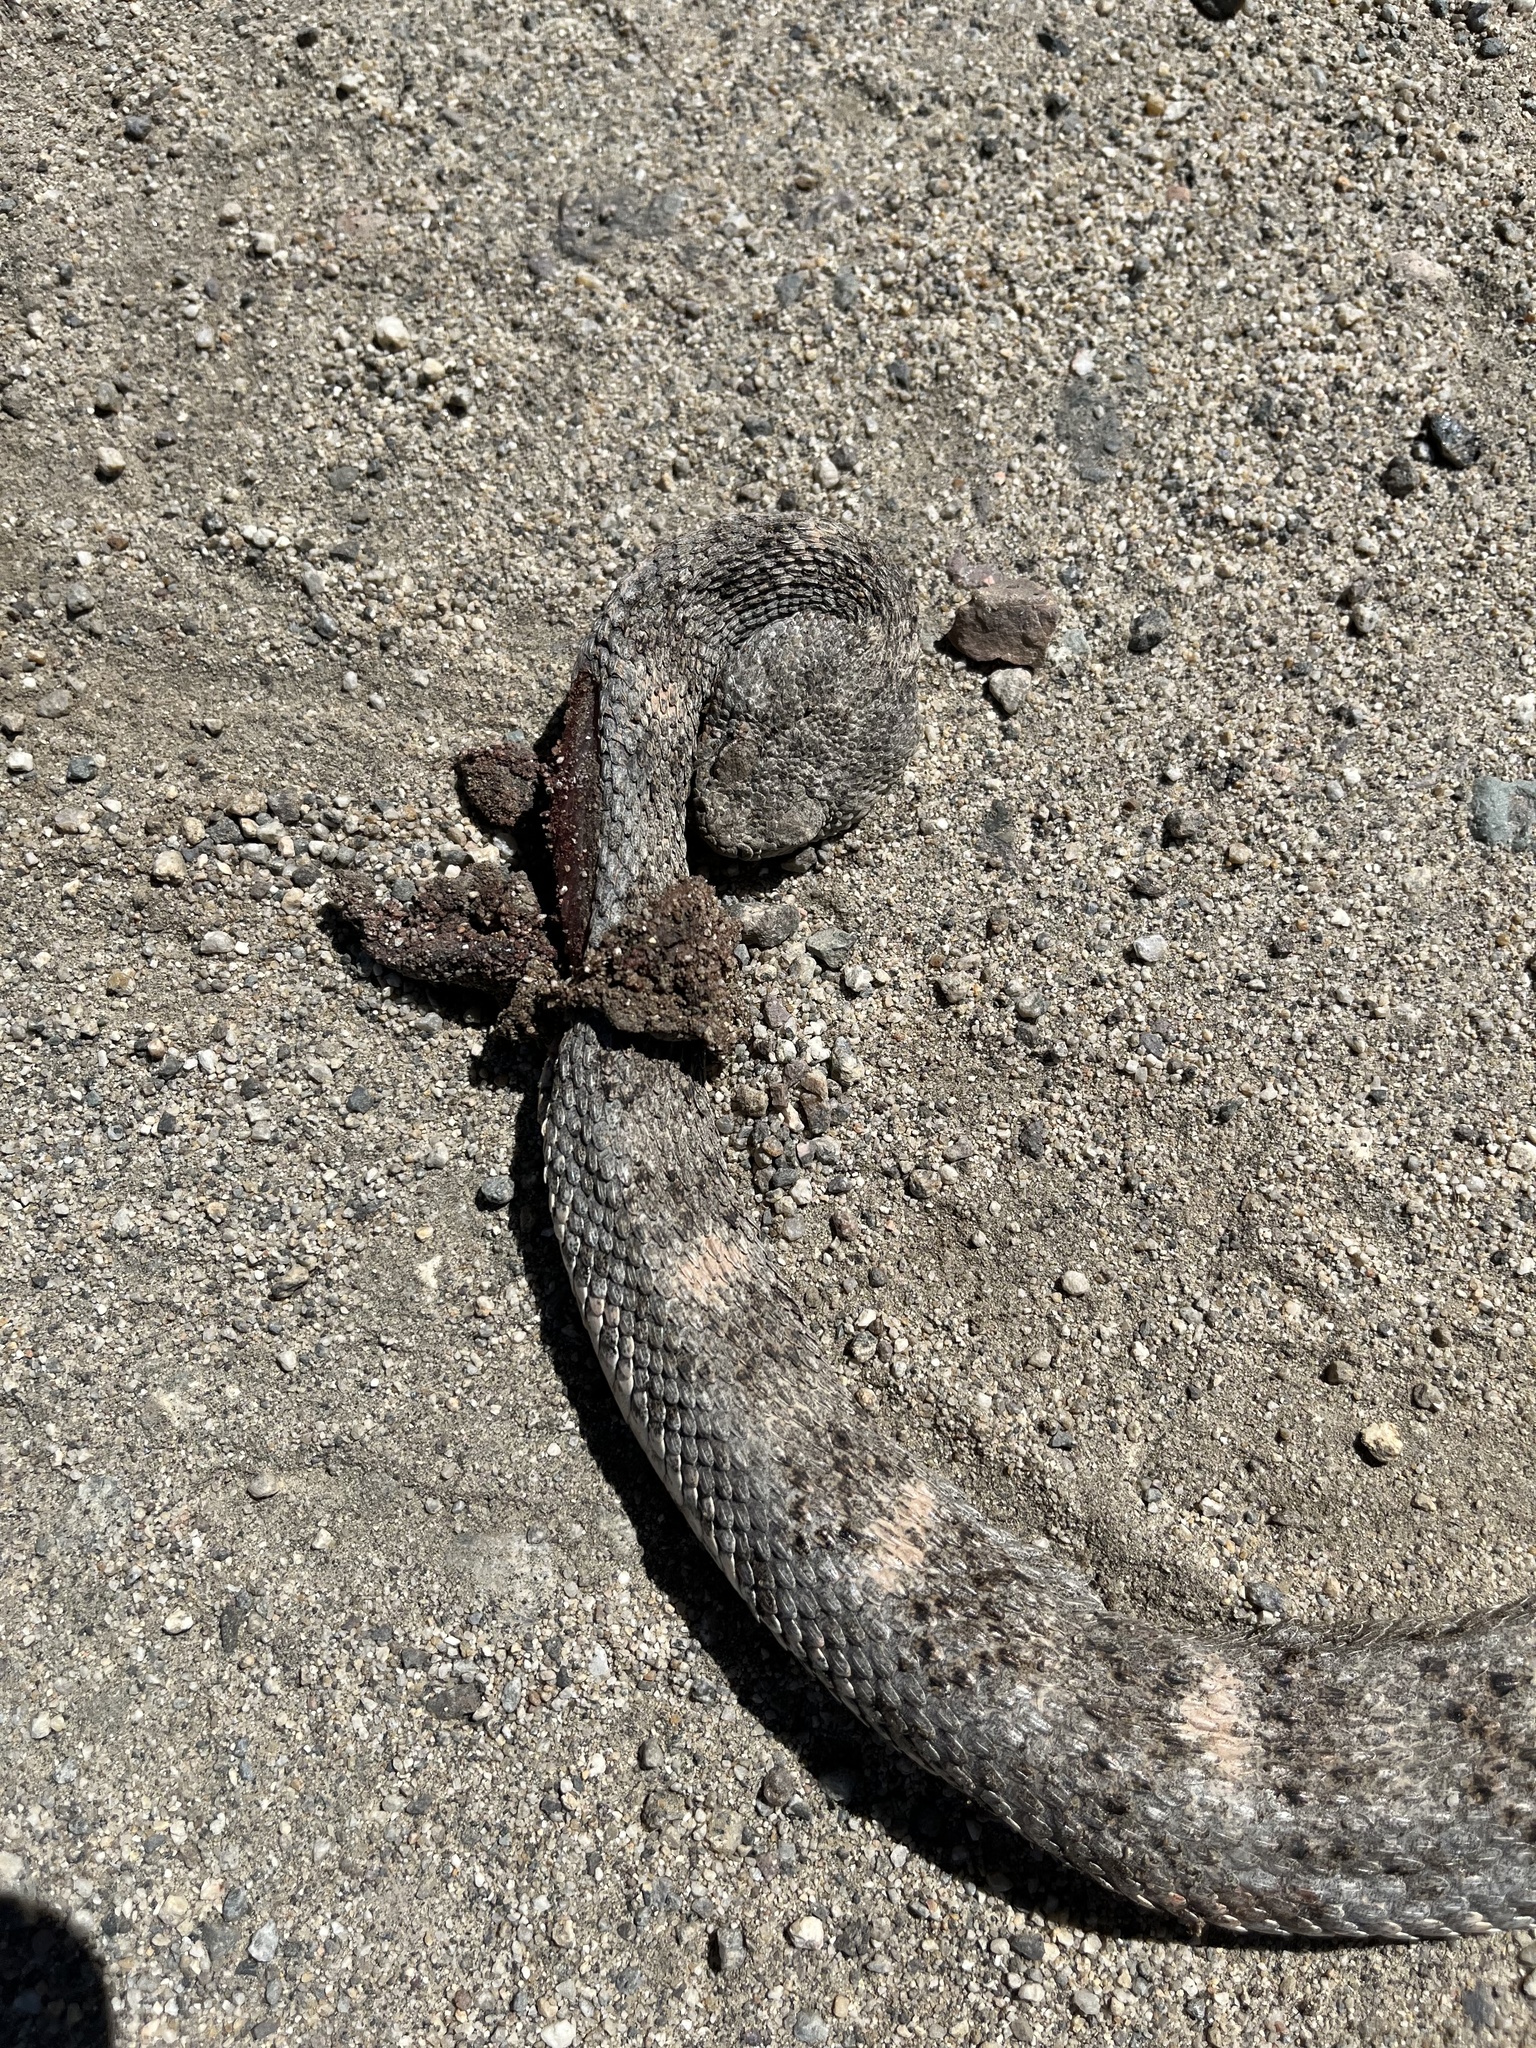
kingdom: Animalia
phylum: Chordata
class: Squamata
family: Viperidae
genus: Crotalus
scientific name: Crotalus pyrrhus
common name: Southwestern speckled rattlesnake
